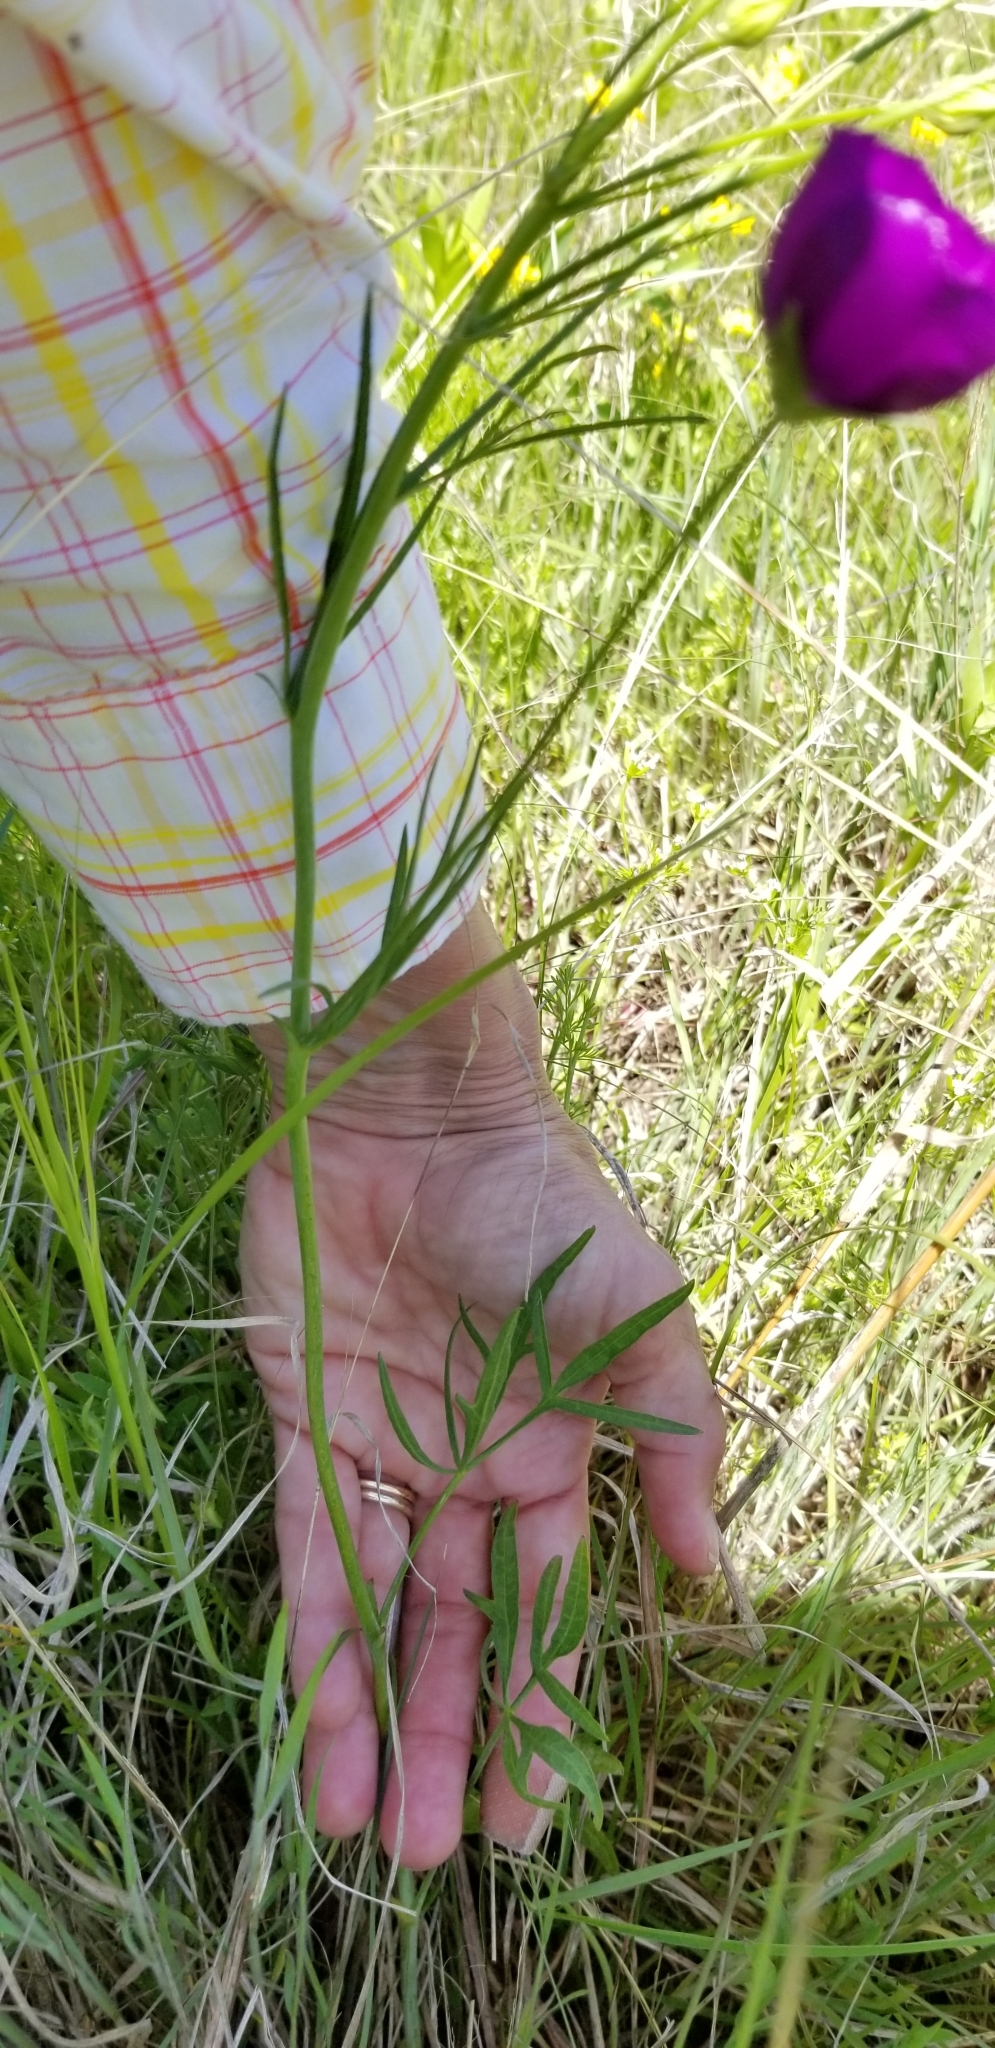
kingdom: Plantae
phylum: Tracheophyta
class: Magnoliopsida
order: Malvales
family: Malvaceae
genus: Callirhoe
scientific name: Callirhoe pedata
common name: Finger poppy-mallow
